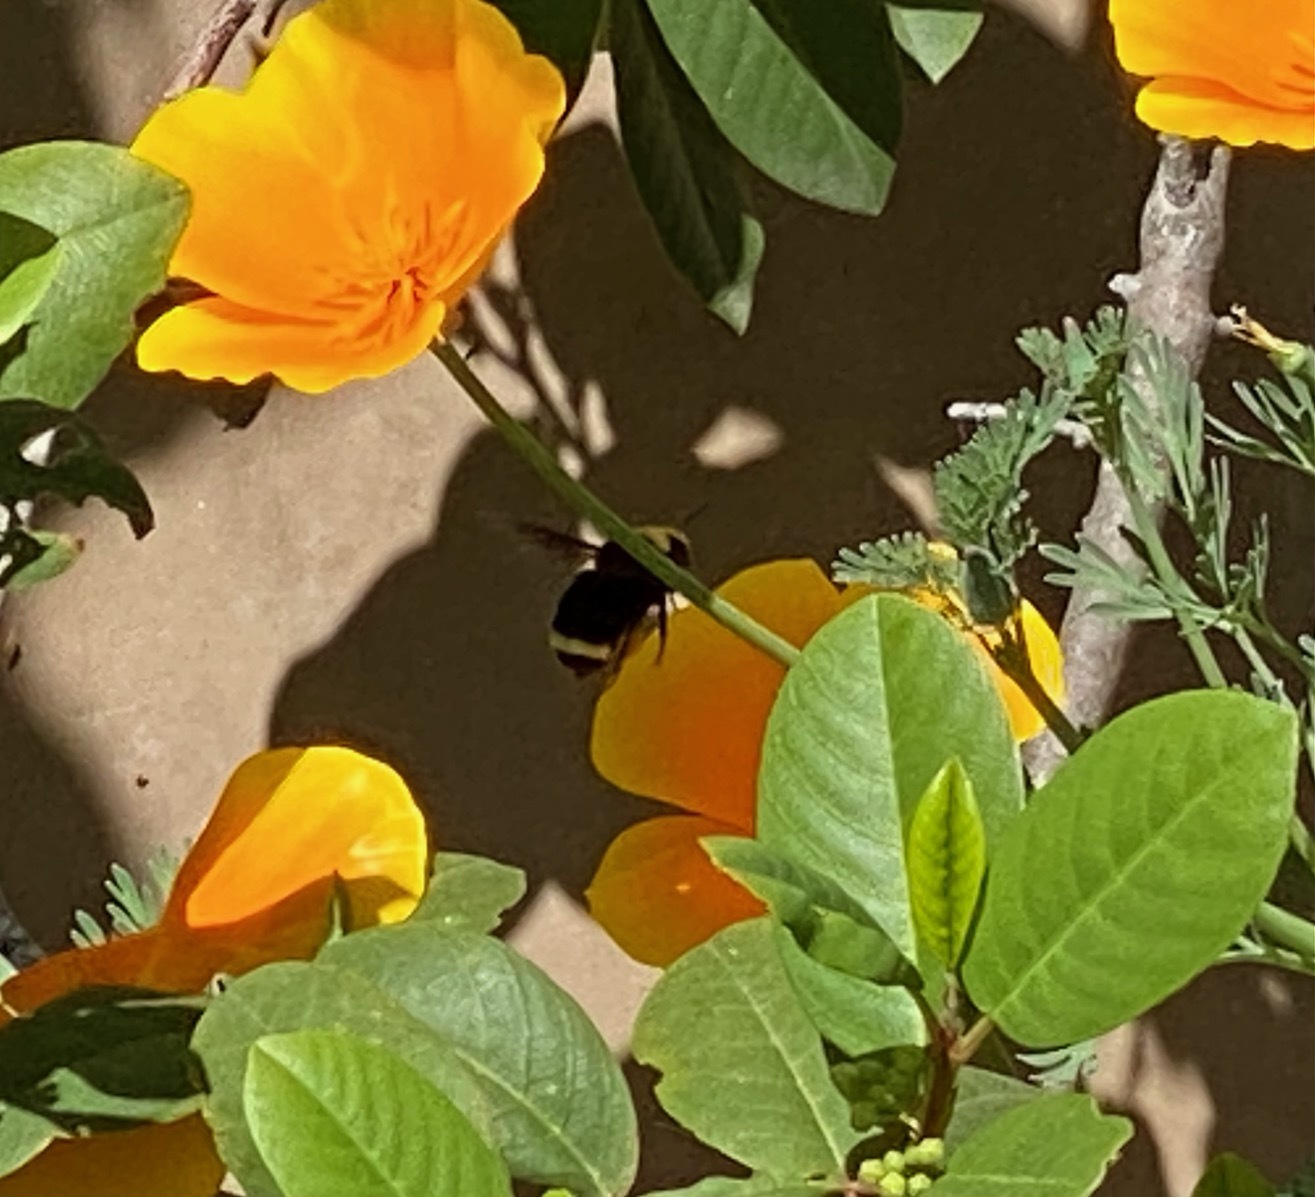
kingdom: Animalia
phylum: Arthropoda
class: Insecta
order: Hymenoptera
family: Apidae
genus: Bombus
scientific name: Bombus vosnesenskii
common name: Vosnesensky bumble bee
